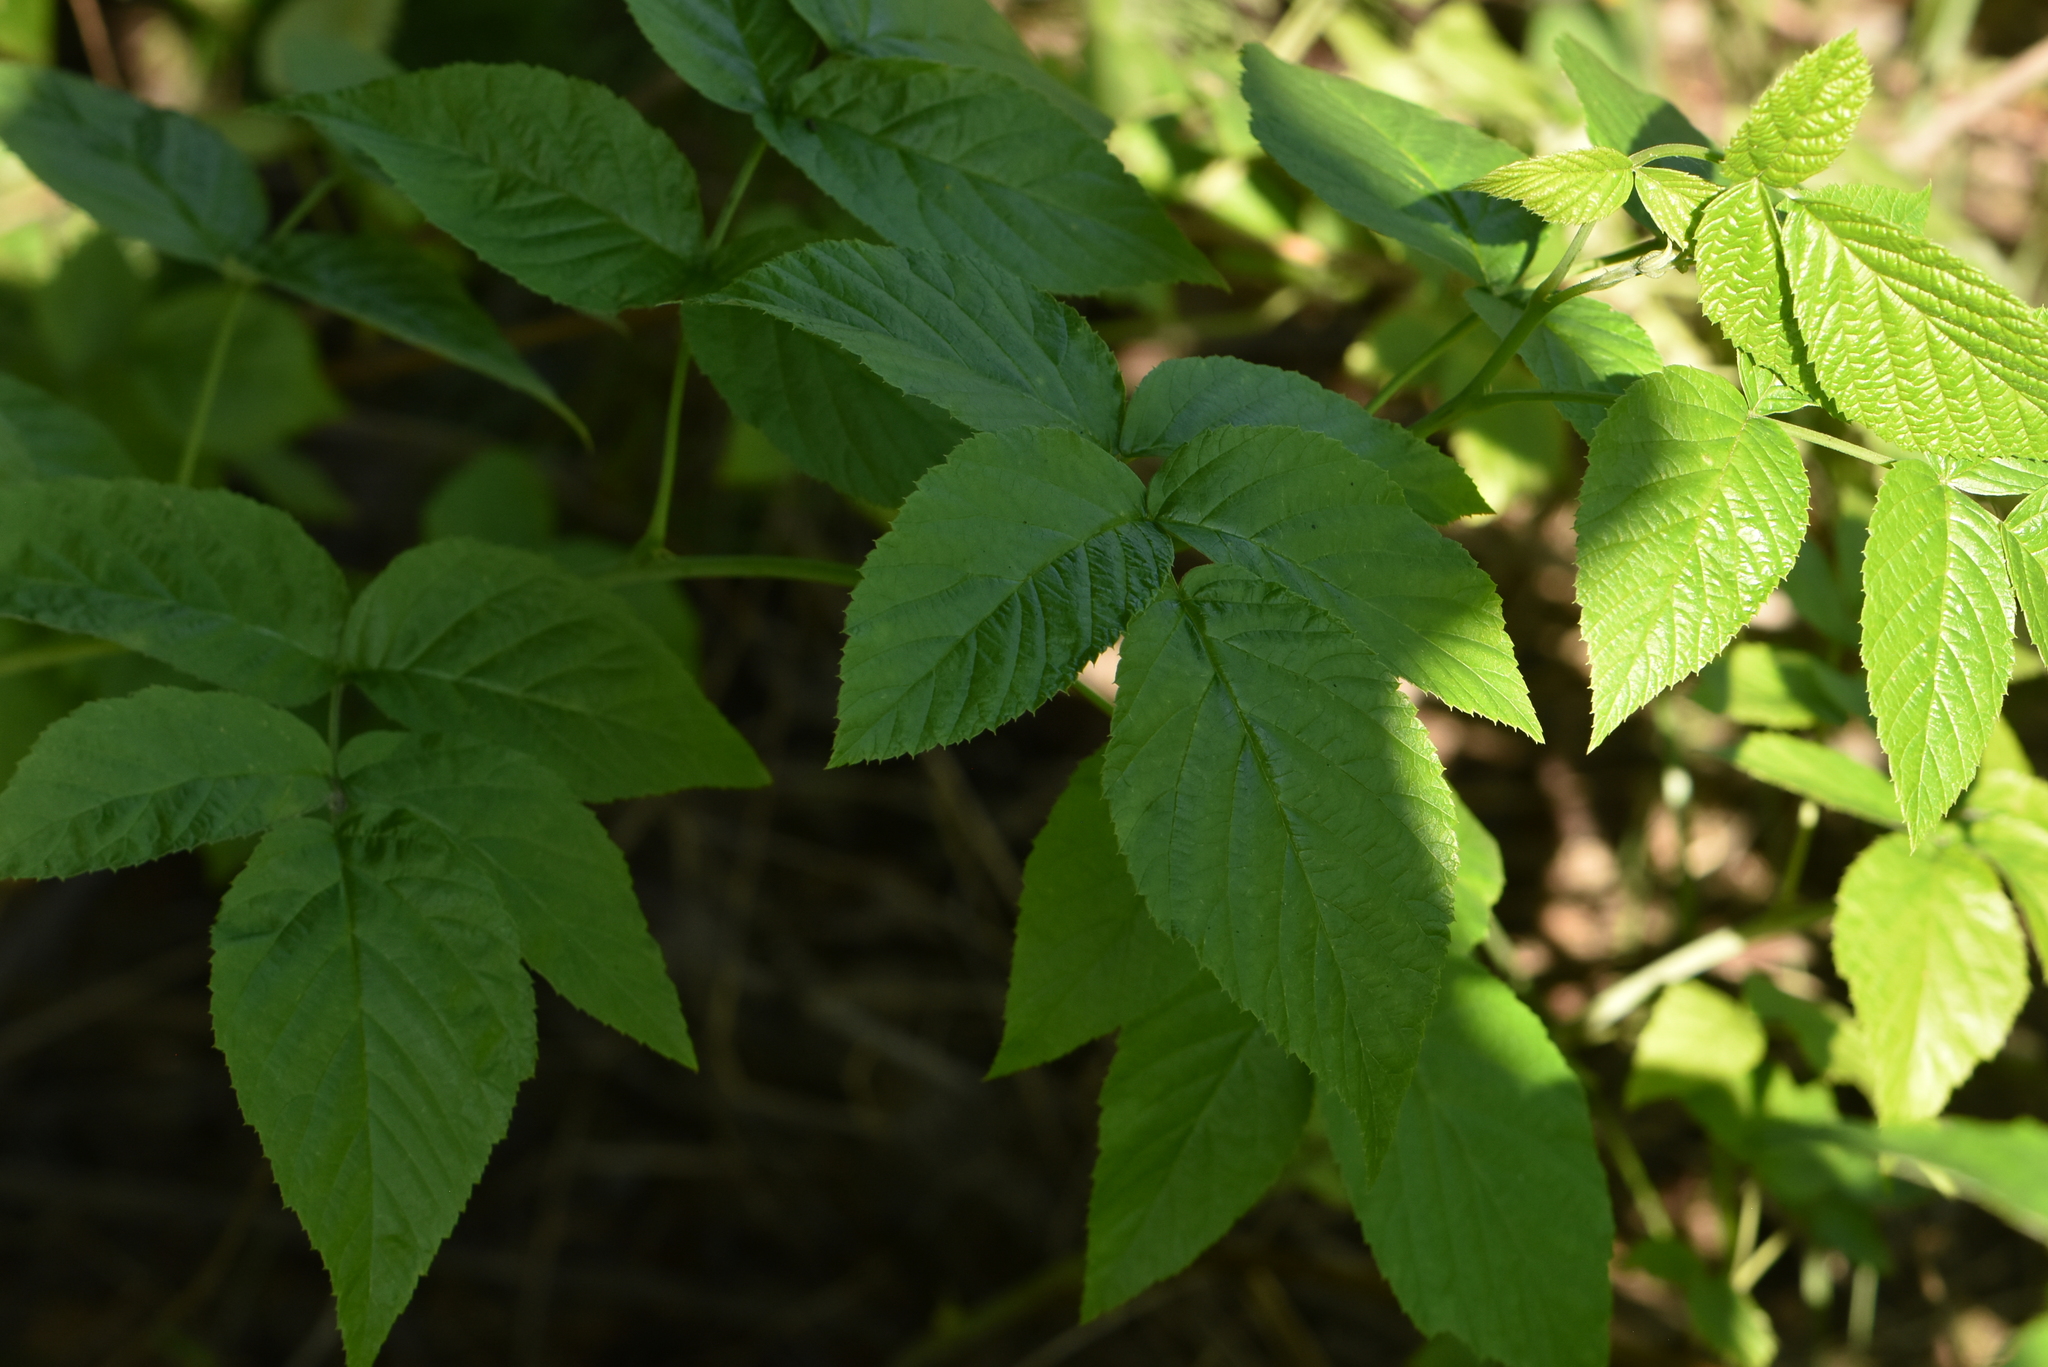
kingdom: Plantae
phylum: Tracheophyta
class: Magnoliopsida
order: Rosales
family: Rosaceae
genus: Rubus
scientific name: Rubus idaeus
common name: Raspberry
